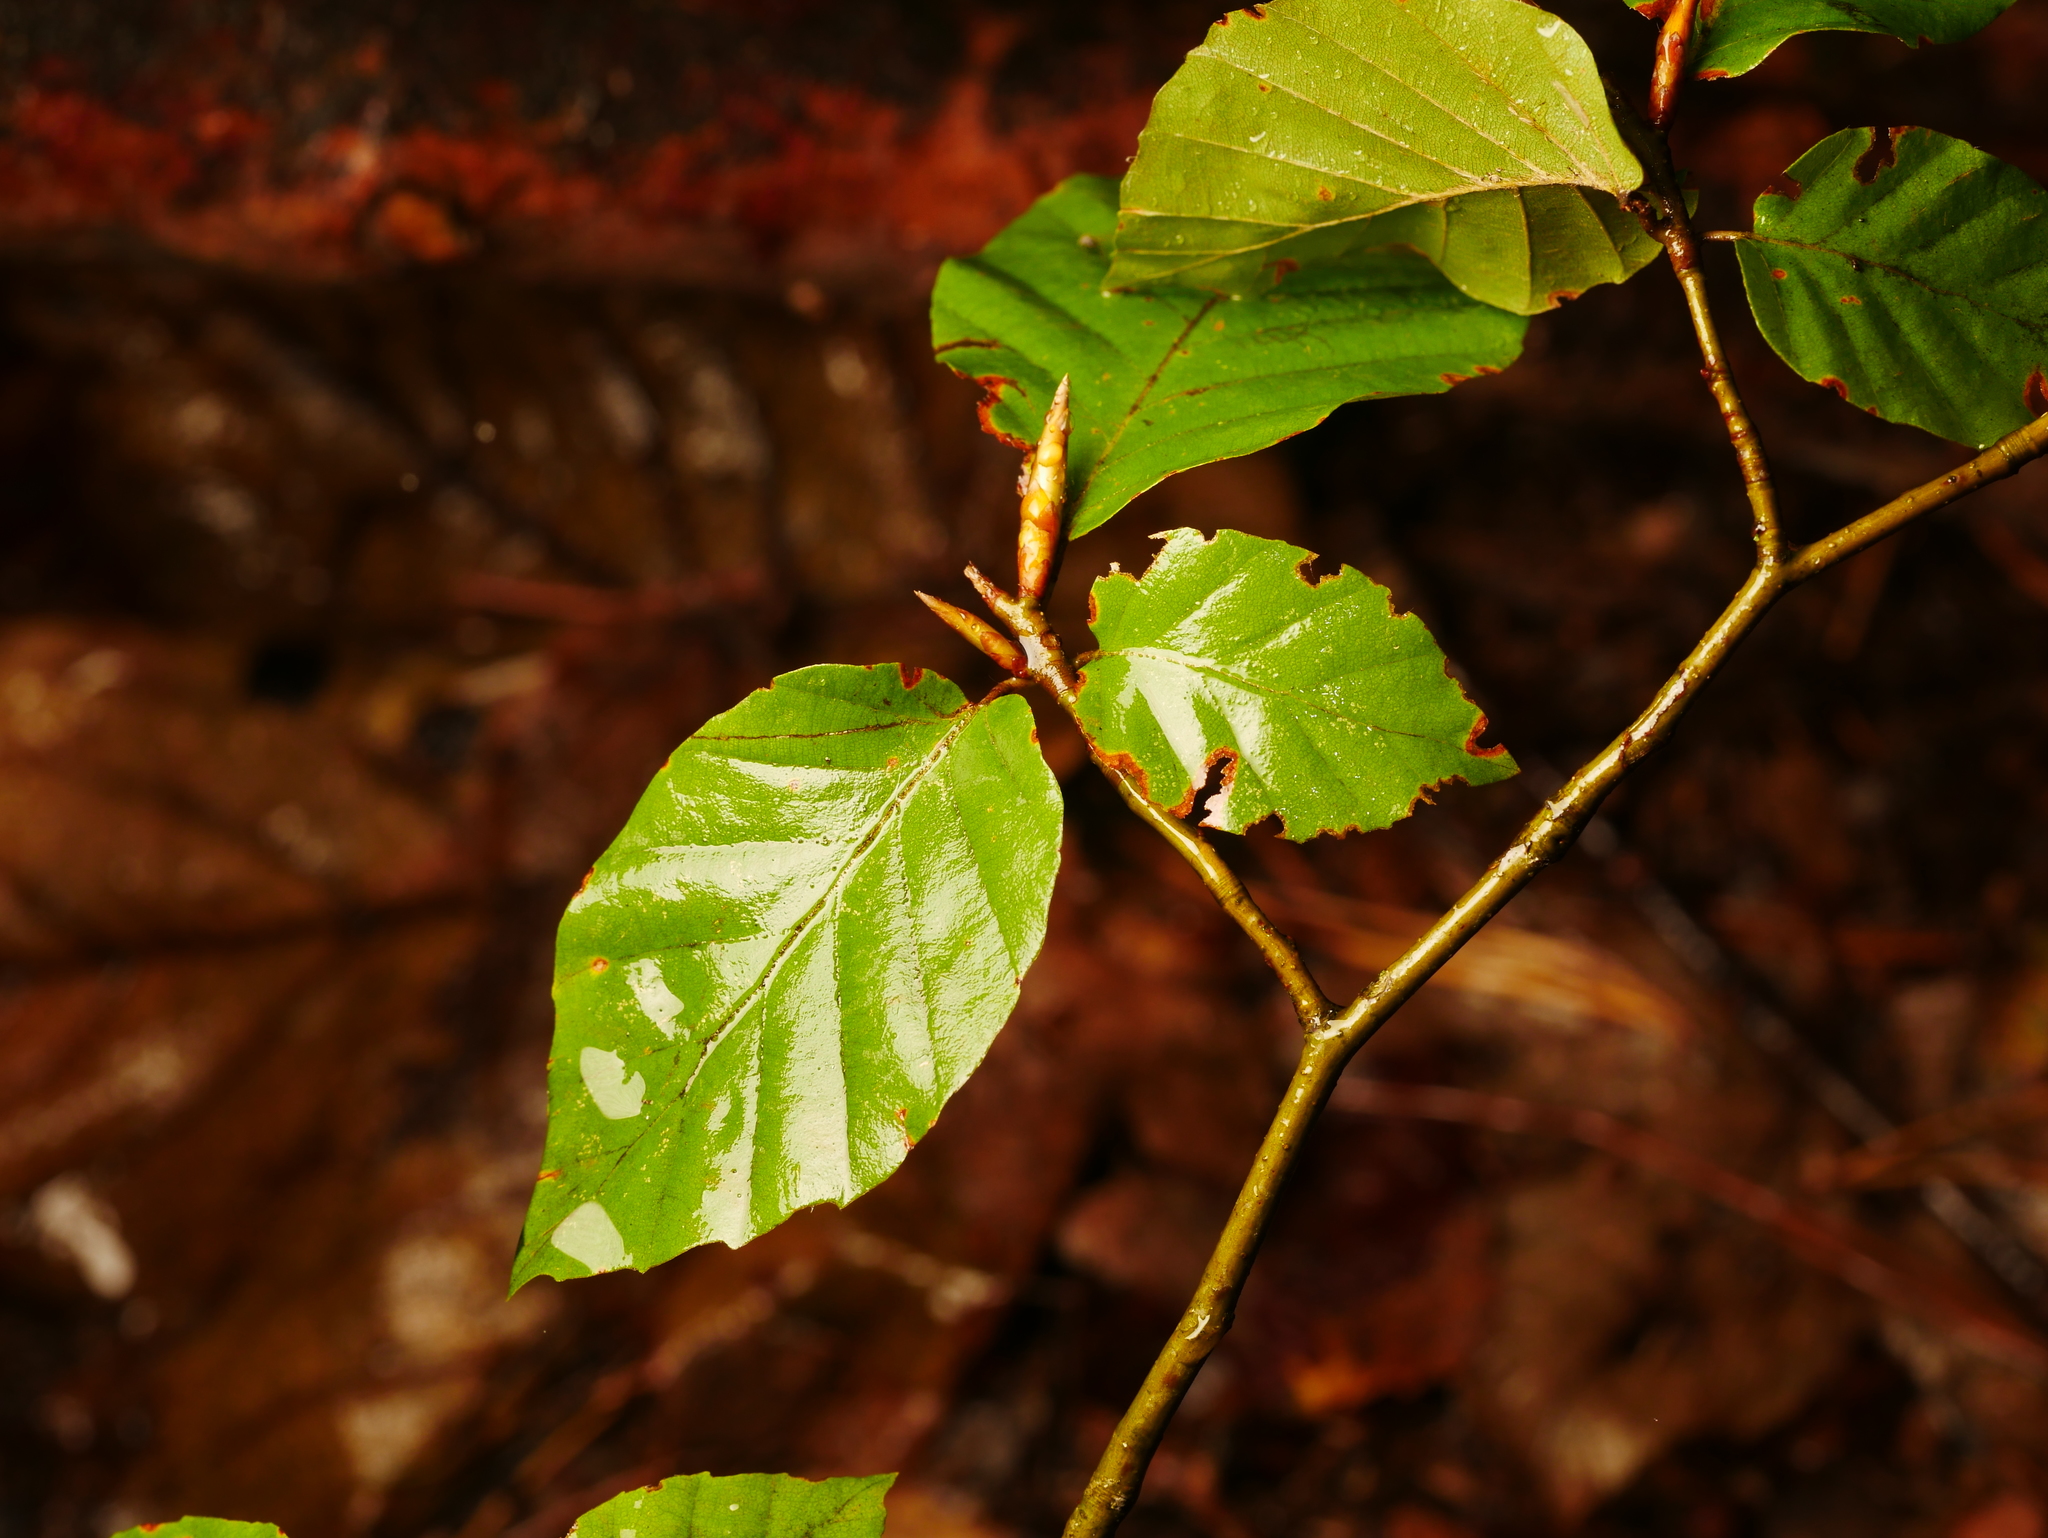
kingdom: Plantae
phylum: Tracheophyta
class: Magnoliopsida
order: Fagales
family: Fagaceae
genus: Fagus
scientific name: Fagus sylvatica
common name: Beech
